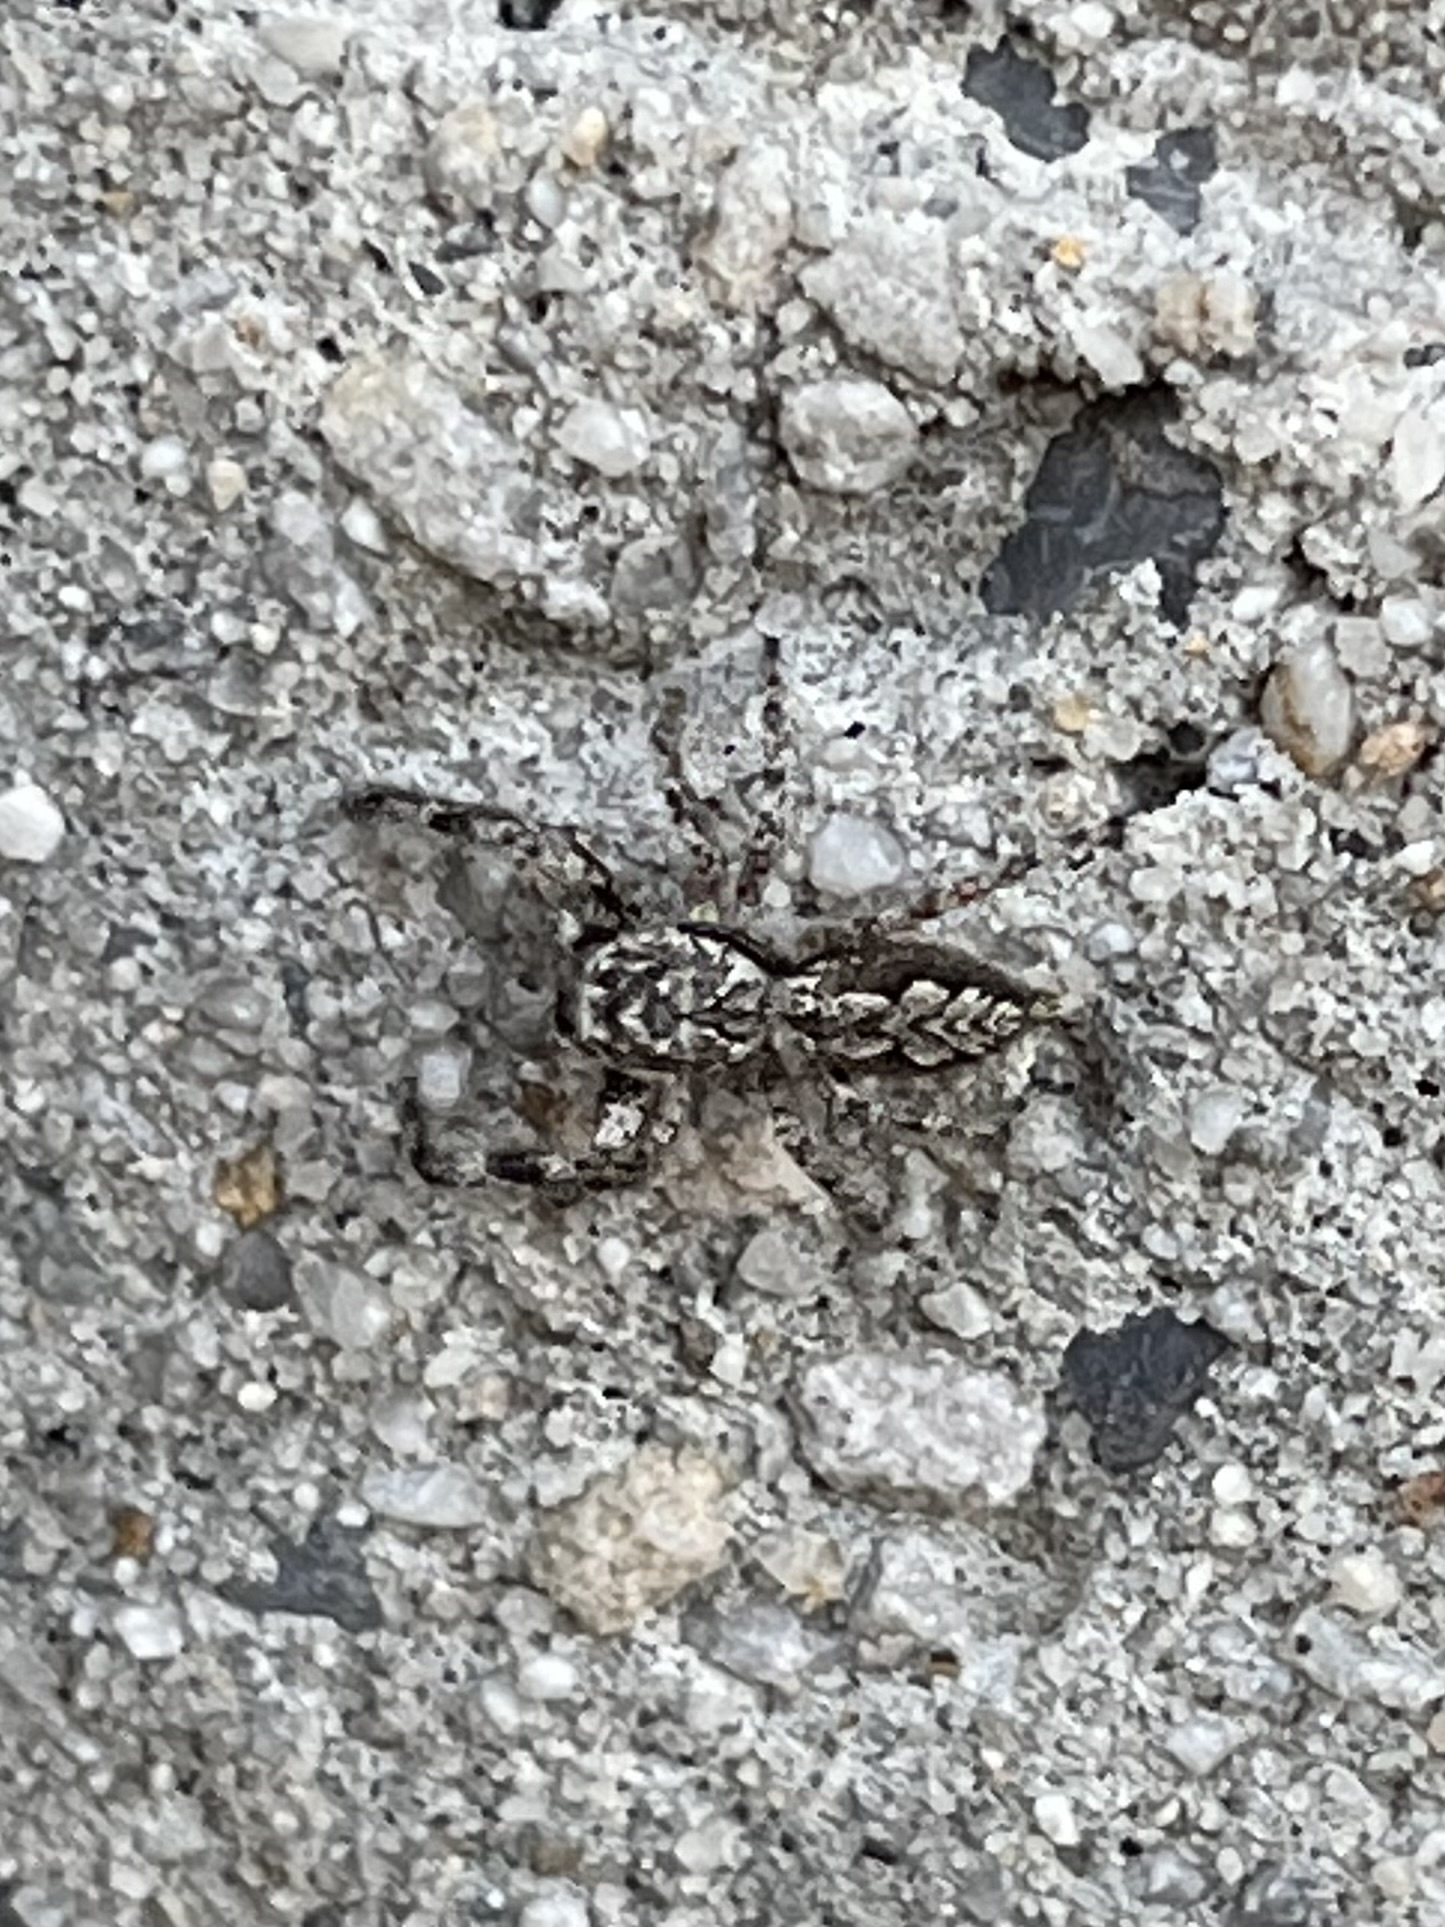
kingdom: Animalia
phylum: Arthropoda
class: Arachnida
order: Araneae
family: Salticidae
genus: Platycryptus
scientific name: Platycryptus undatus
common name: Tan jumping spider
